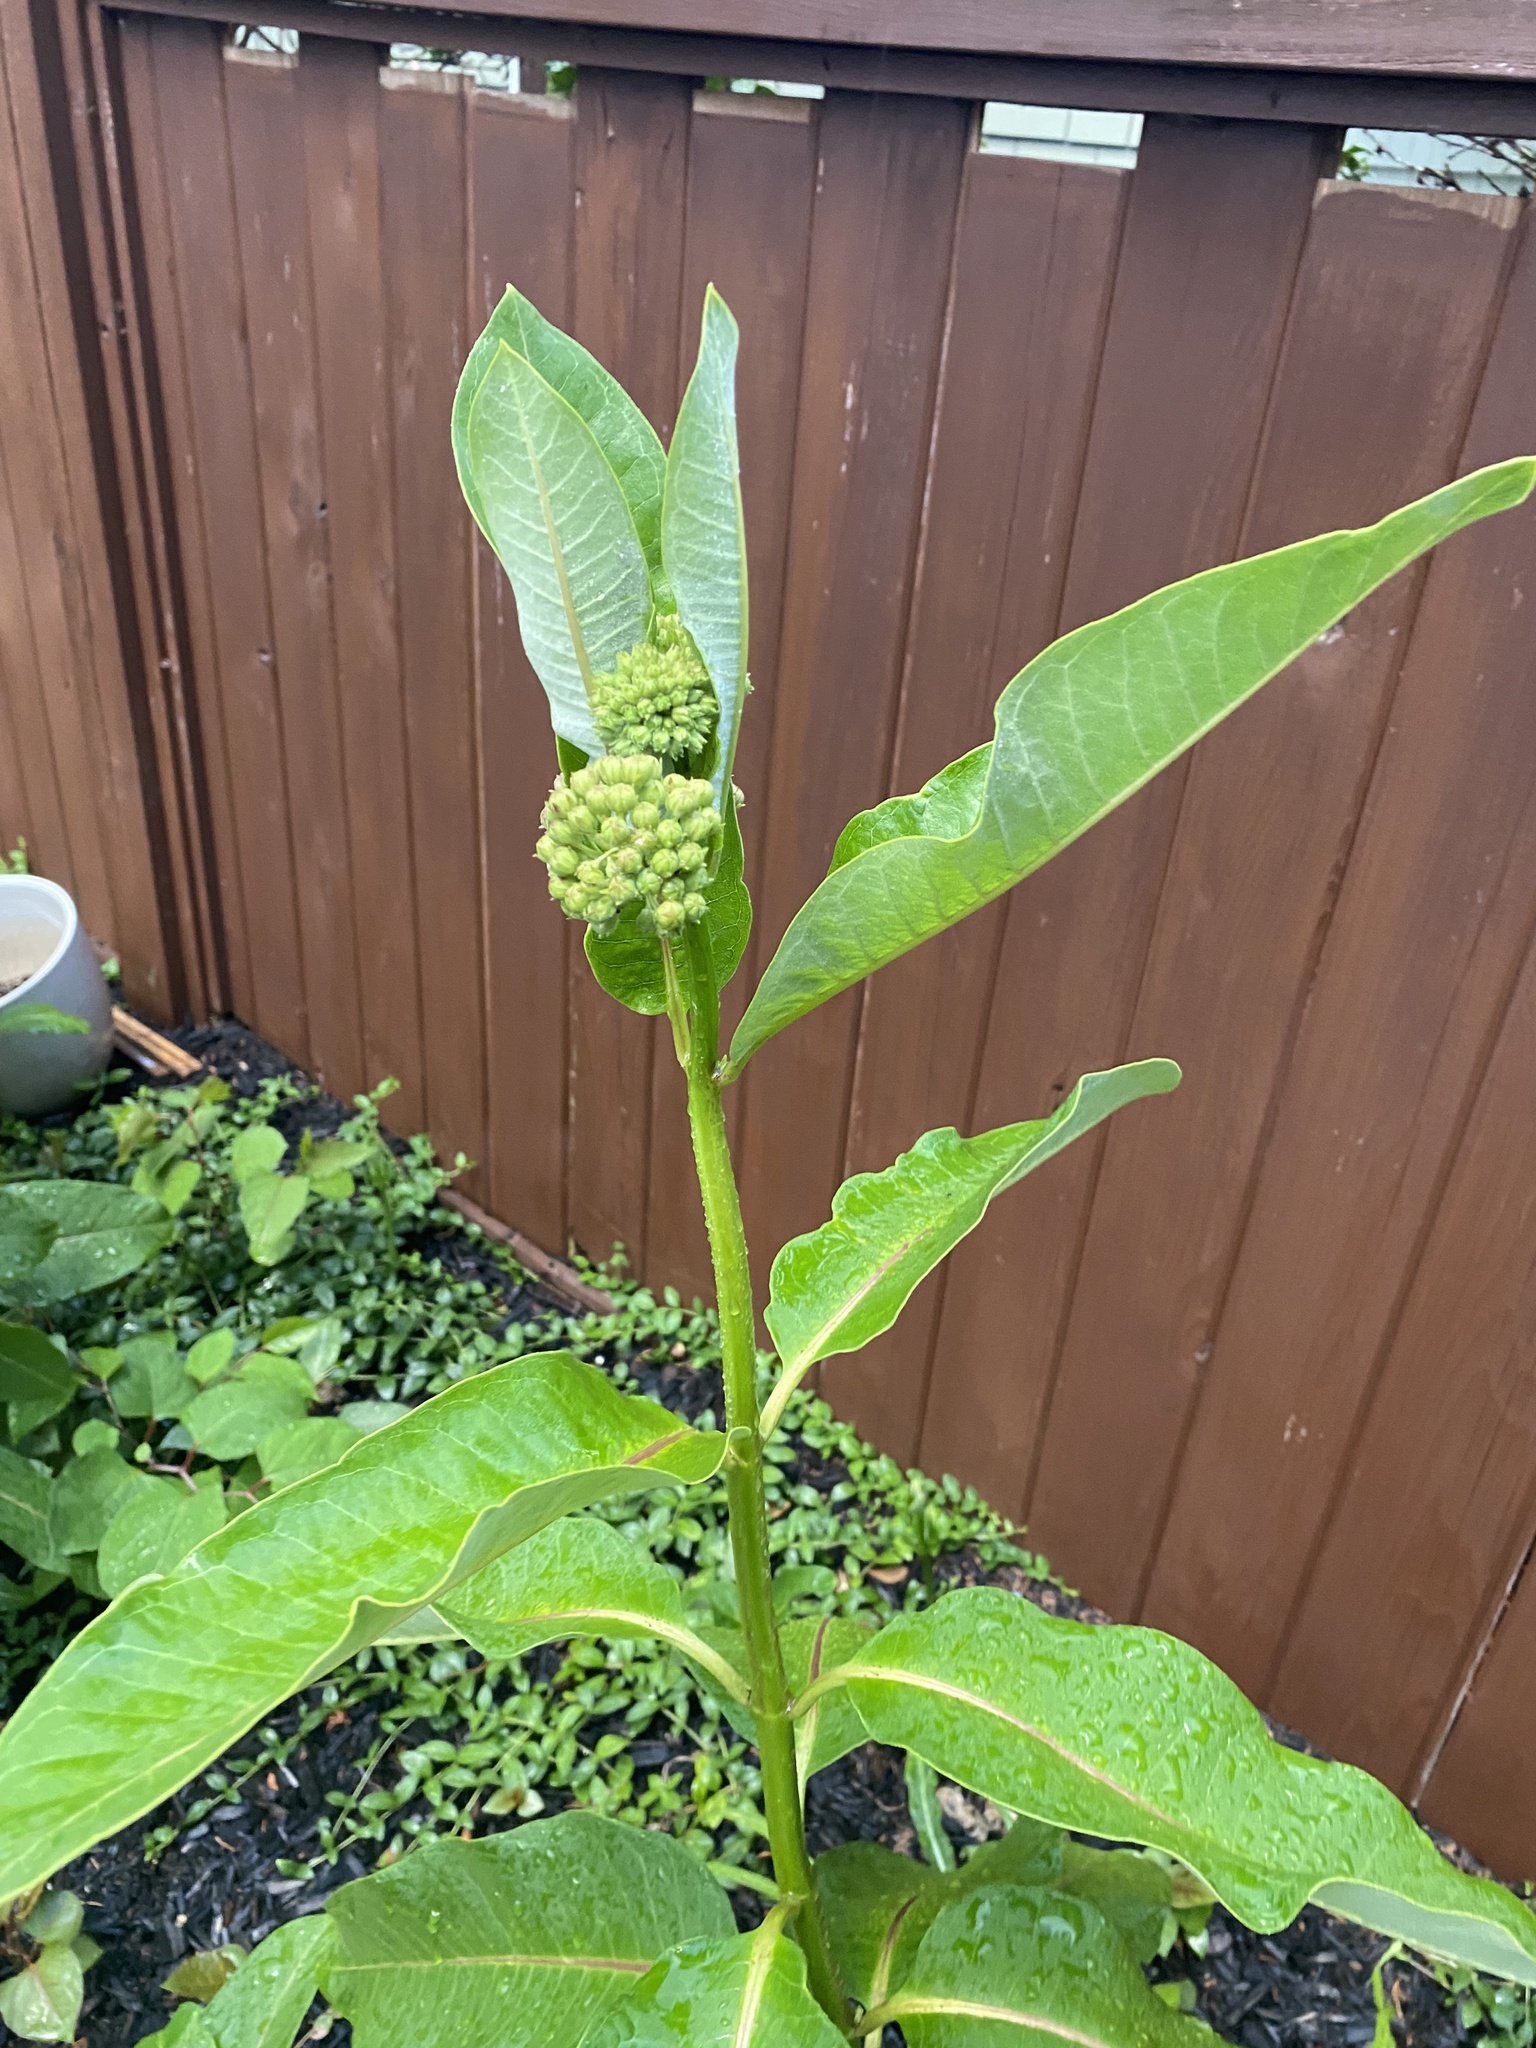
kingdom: Plantae
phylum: Tracheophyta
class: Magnoliopsida
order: Gentianales
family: Apocynaceae
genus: Asclepias
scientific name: Asclepias syriaca
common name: Common milkweed
